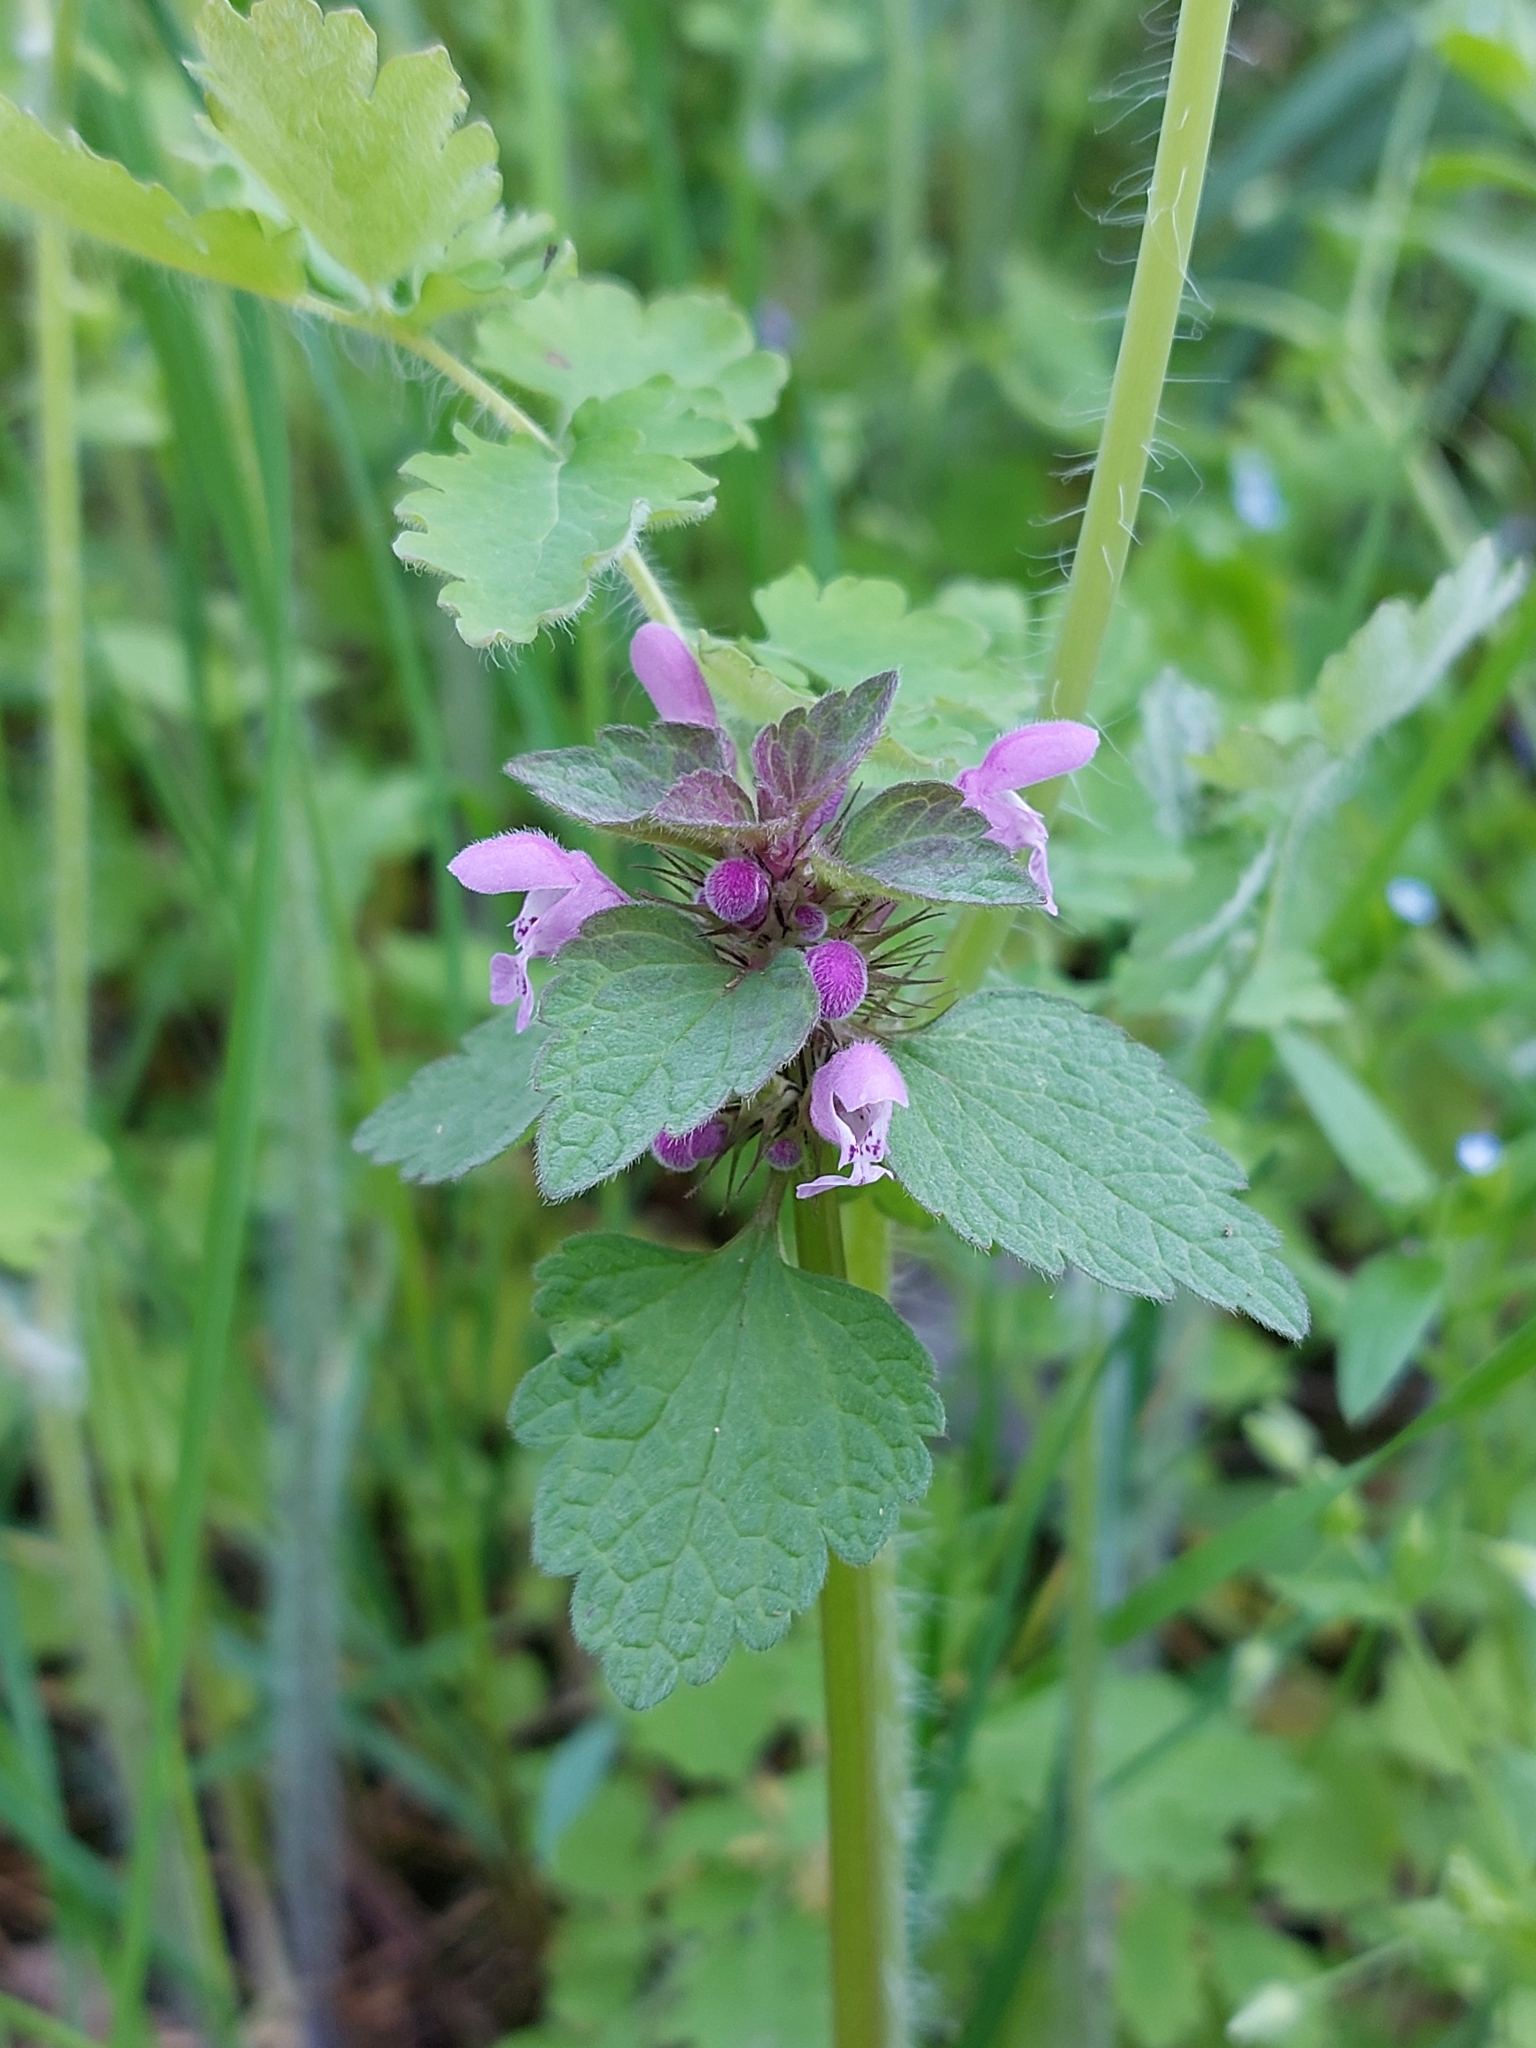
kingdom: Plantae
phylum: Tracheophyta
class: Magnoliopsida
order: Lamiales
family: Lamiaceae
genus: Lamium
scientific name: Lamium purpureum
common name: Red dead-nettle
